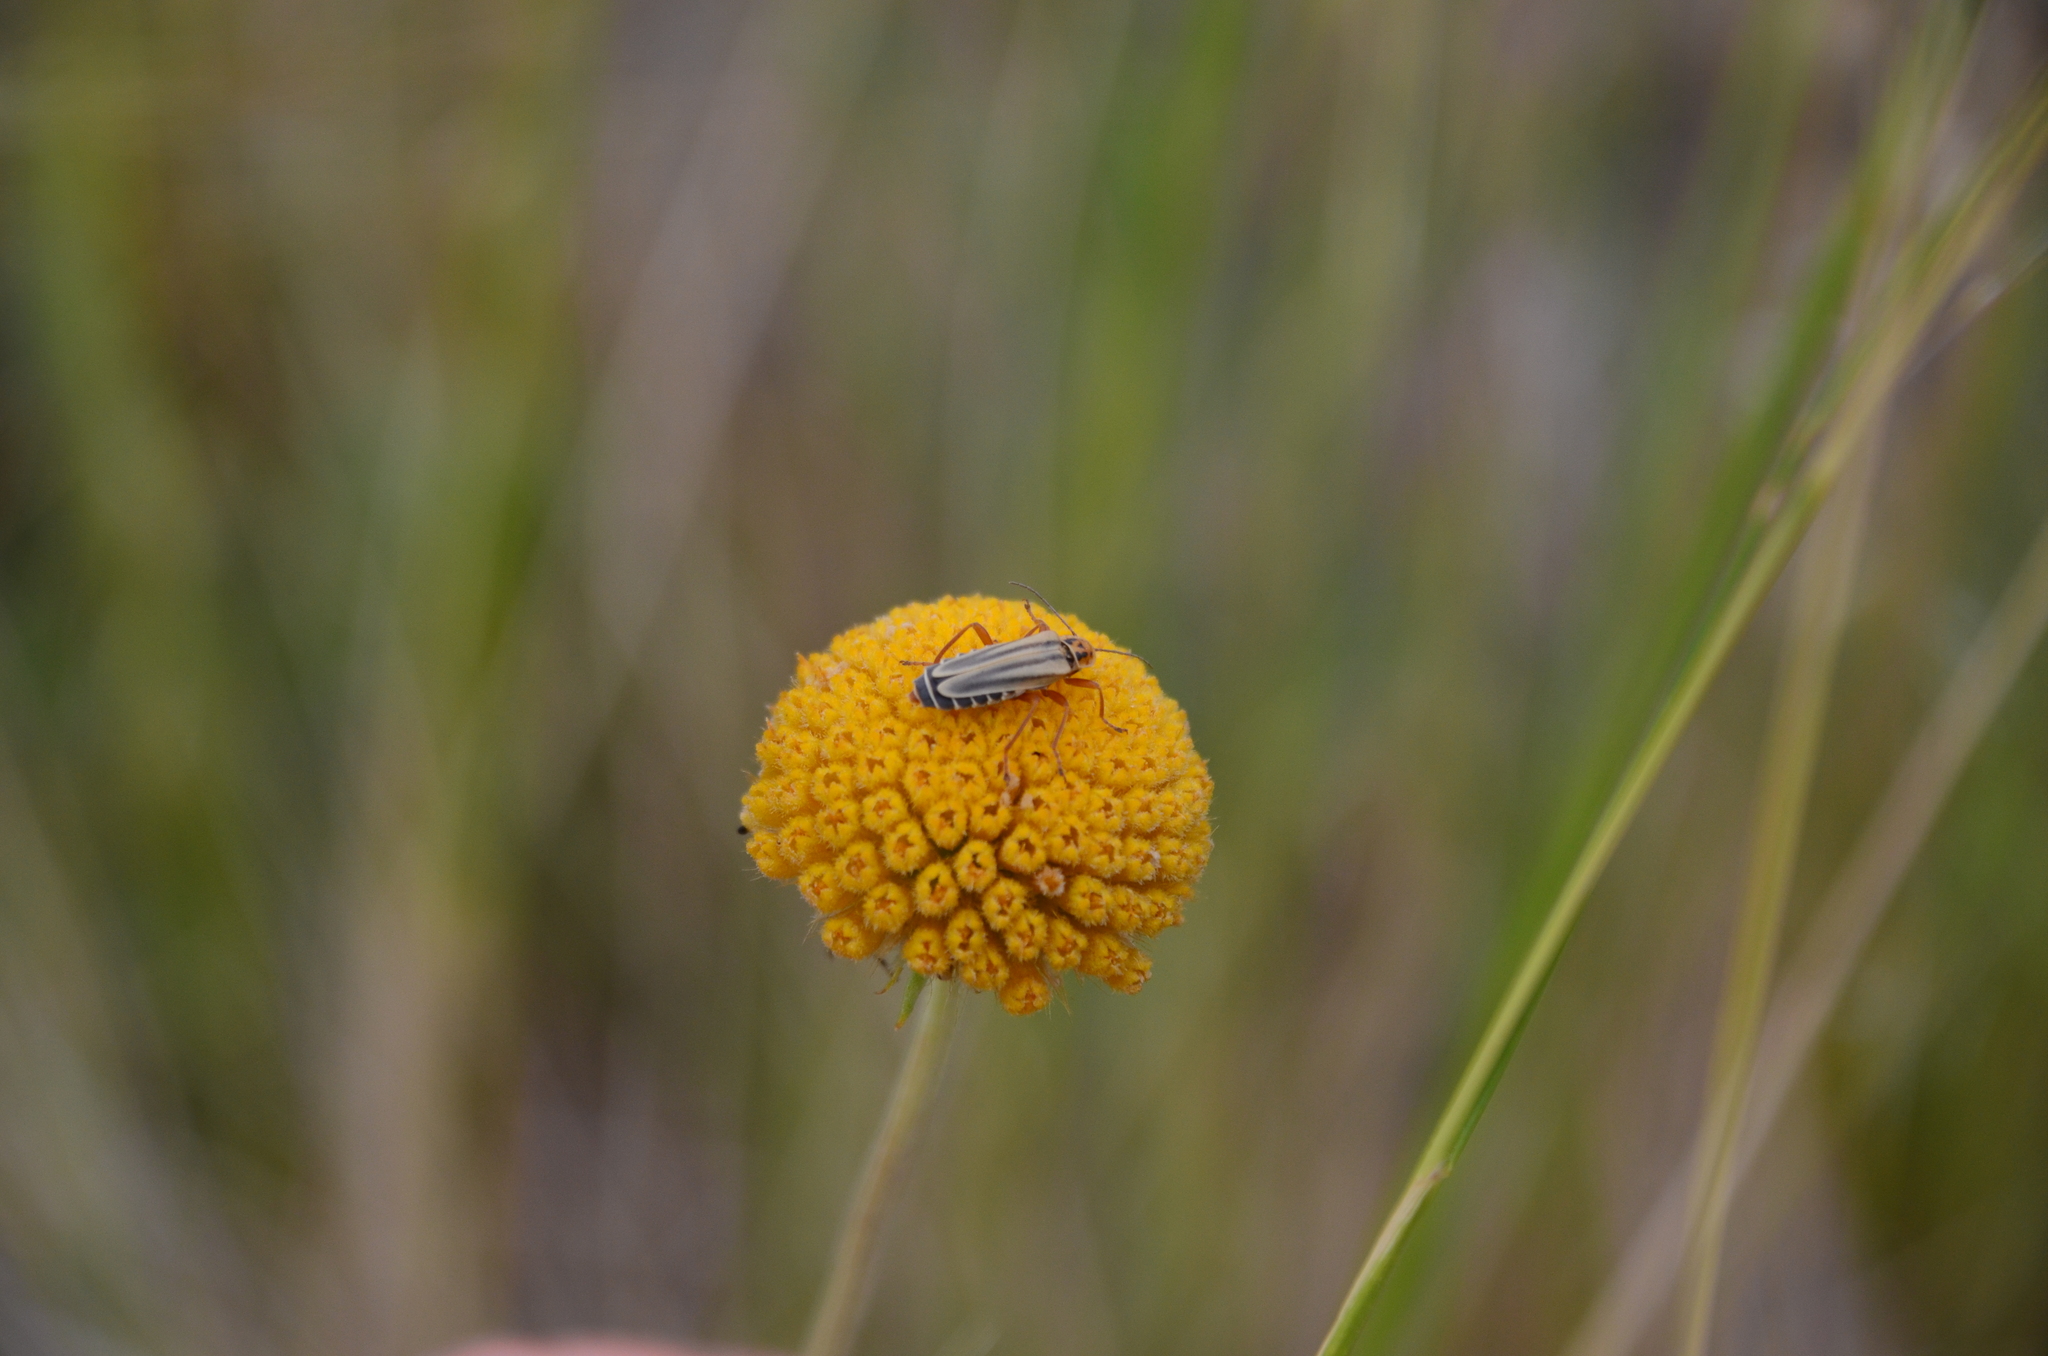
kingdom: Animalia
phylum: Arthropoda
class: Insecta
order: Coleoptera
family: Cantharidae
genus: Chauliognathus
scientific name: Chauliognathus
